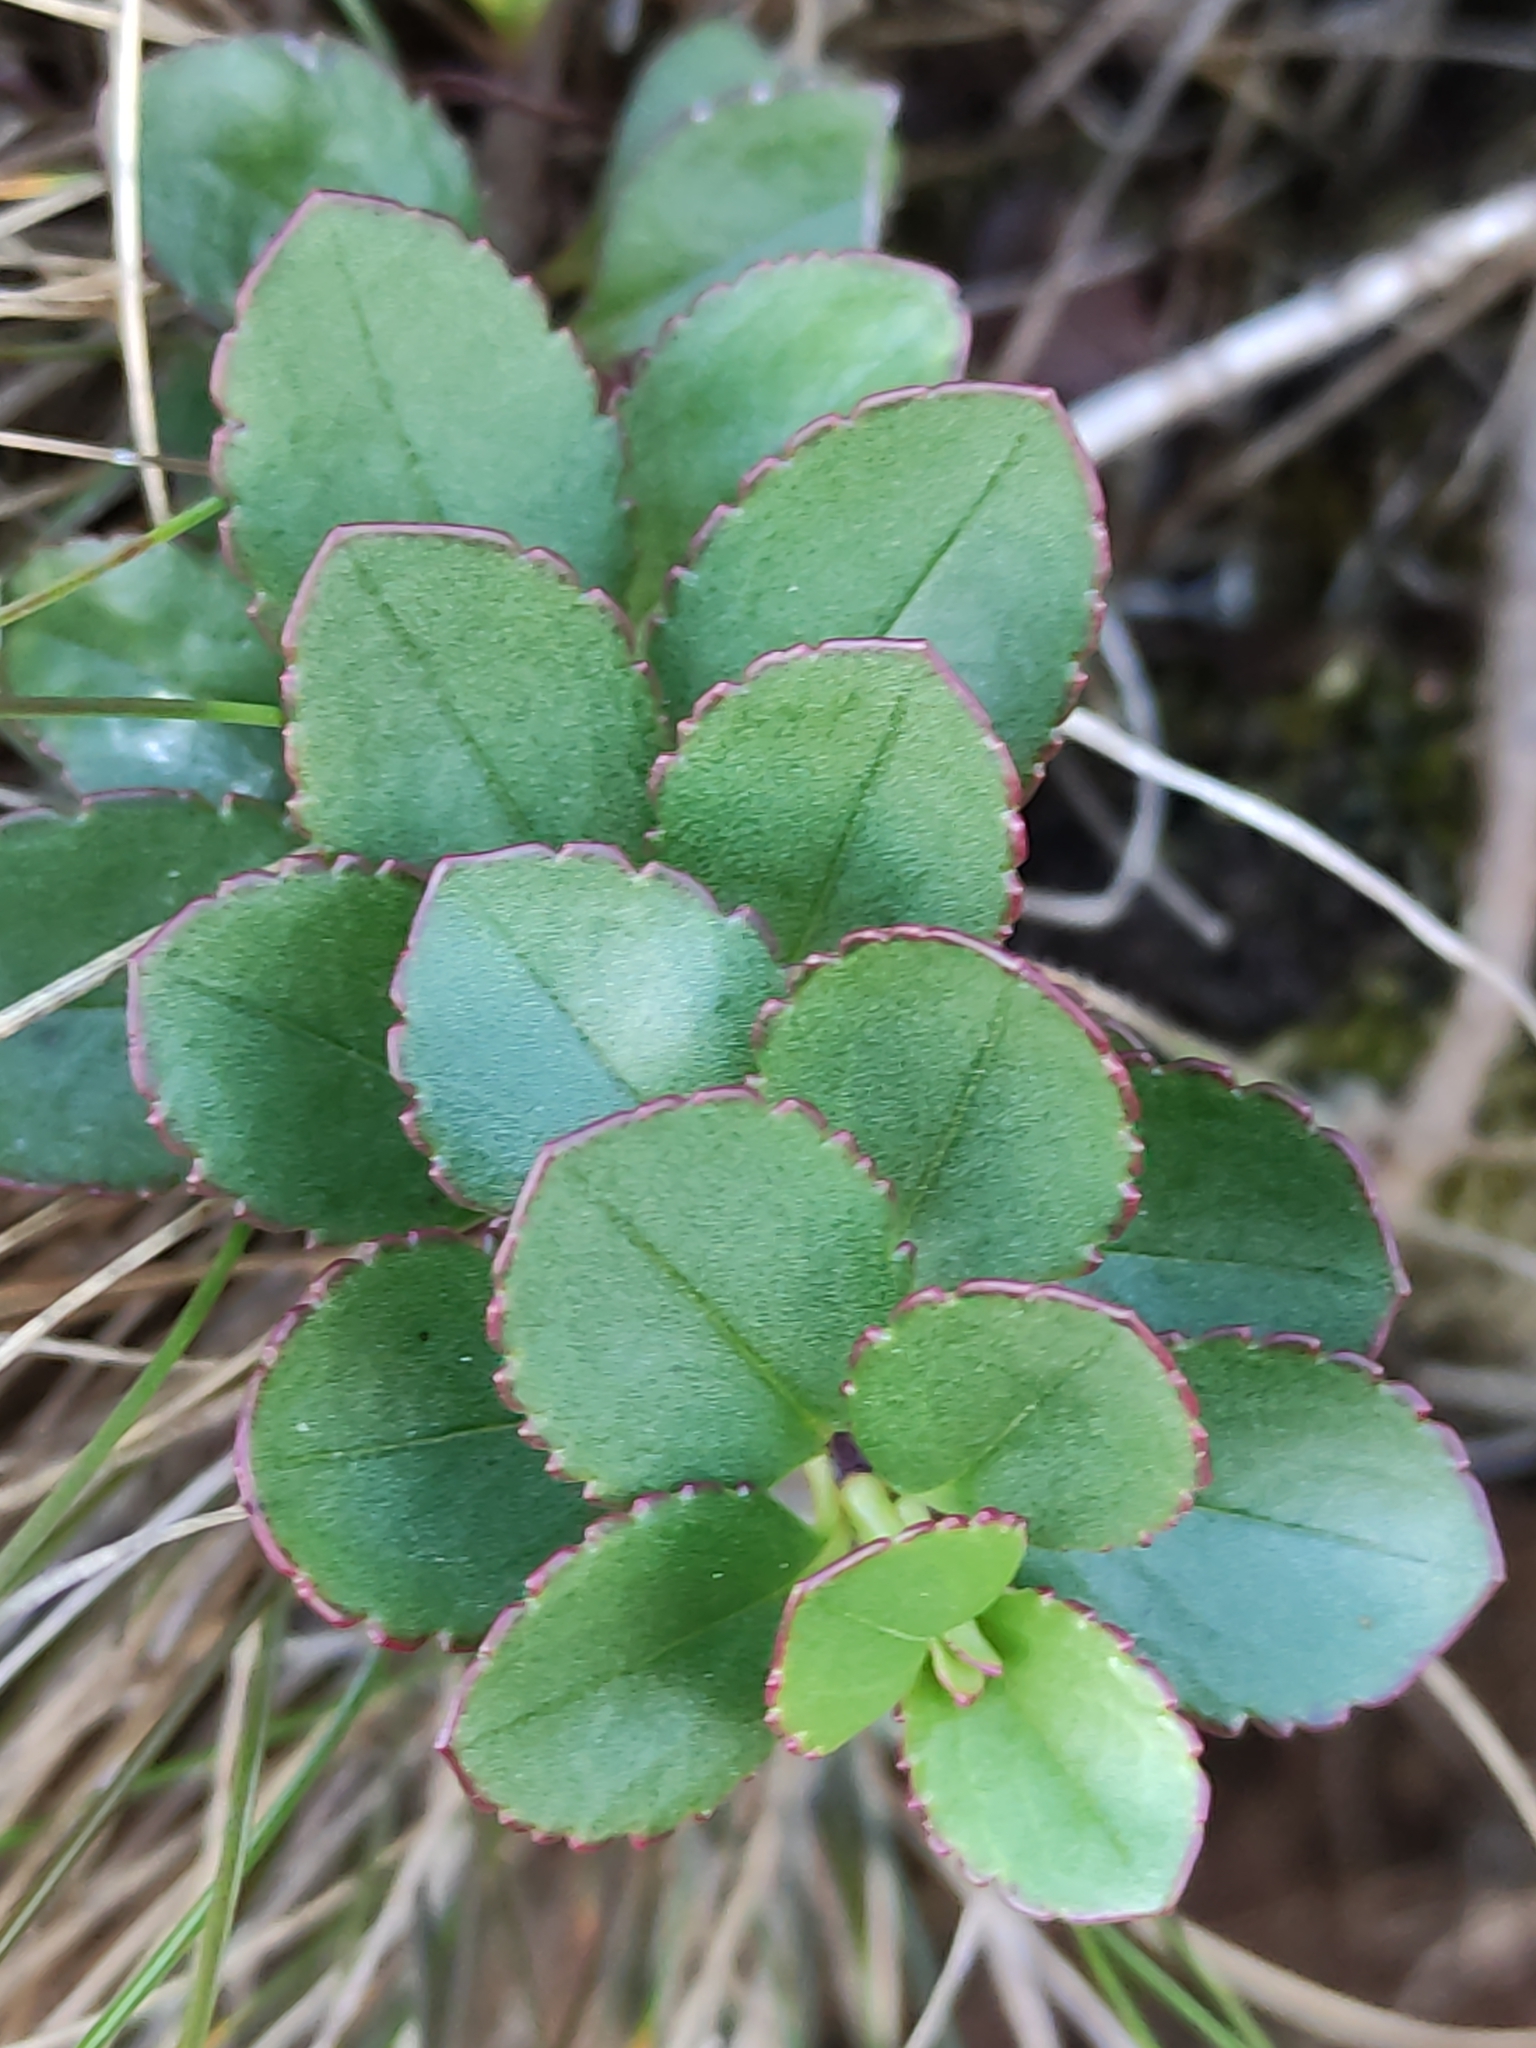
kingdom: Plantae
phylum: Tracheophyta
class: Magnoliopsida
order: Lamiales
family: Plantaginaceae
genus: Veronica
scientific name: Veronica lavaudiana
